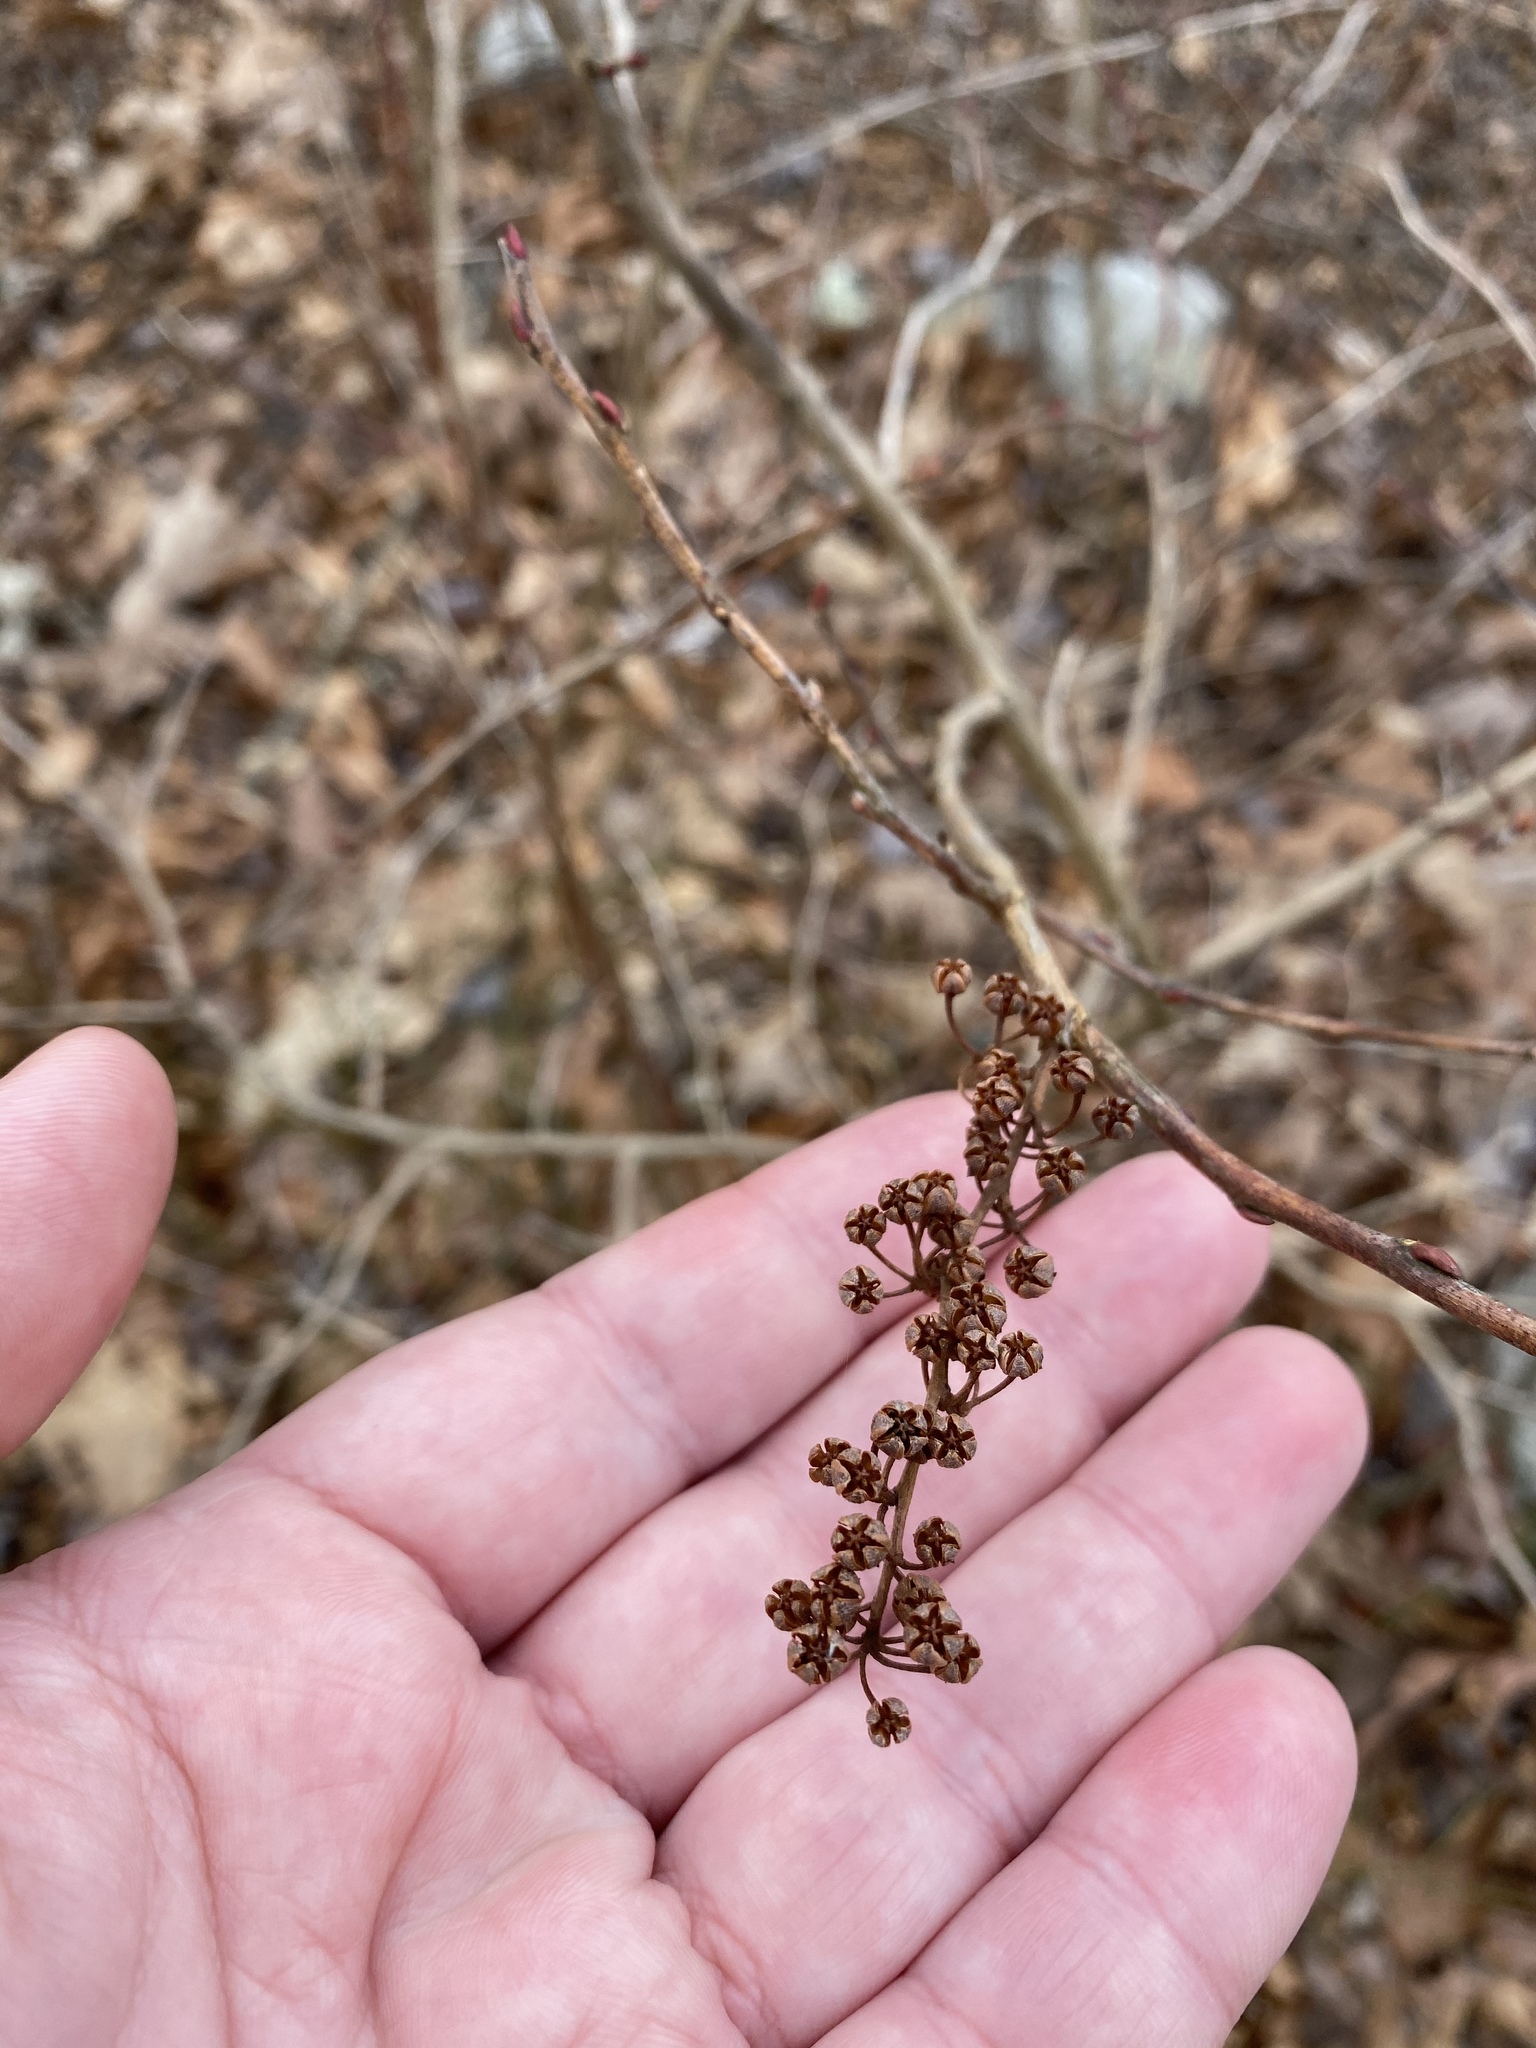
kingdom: Plantae
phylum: Tracheophyta
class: Magnoliopsida
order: Ericales
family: Ericaceae
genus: Lyonia
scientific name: Lyonia ligustrina
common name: Maleberry
